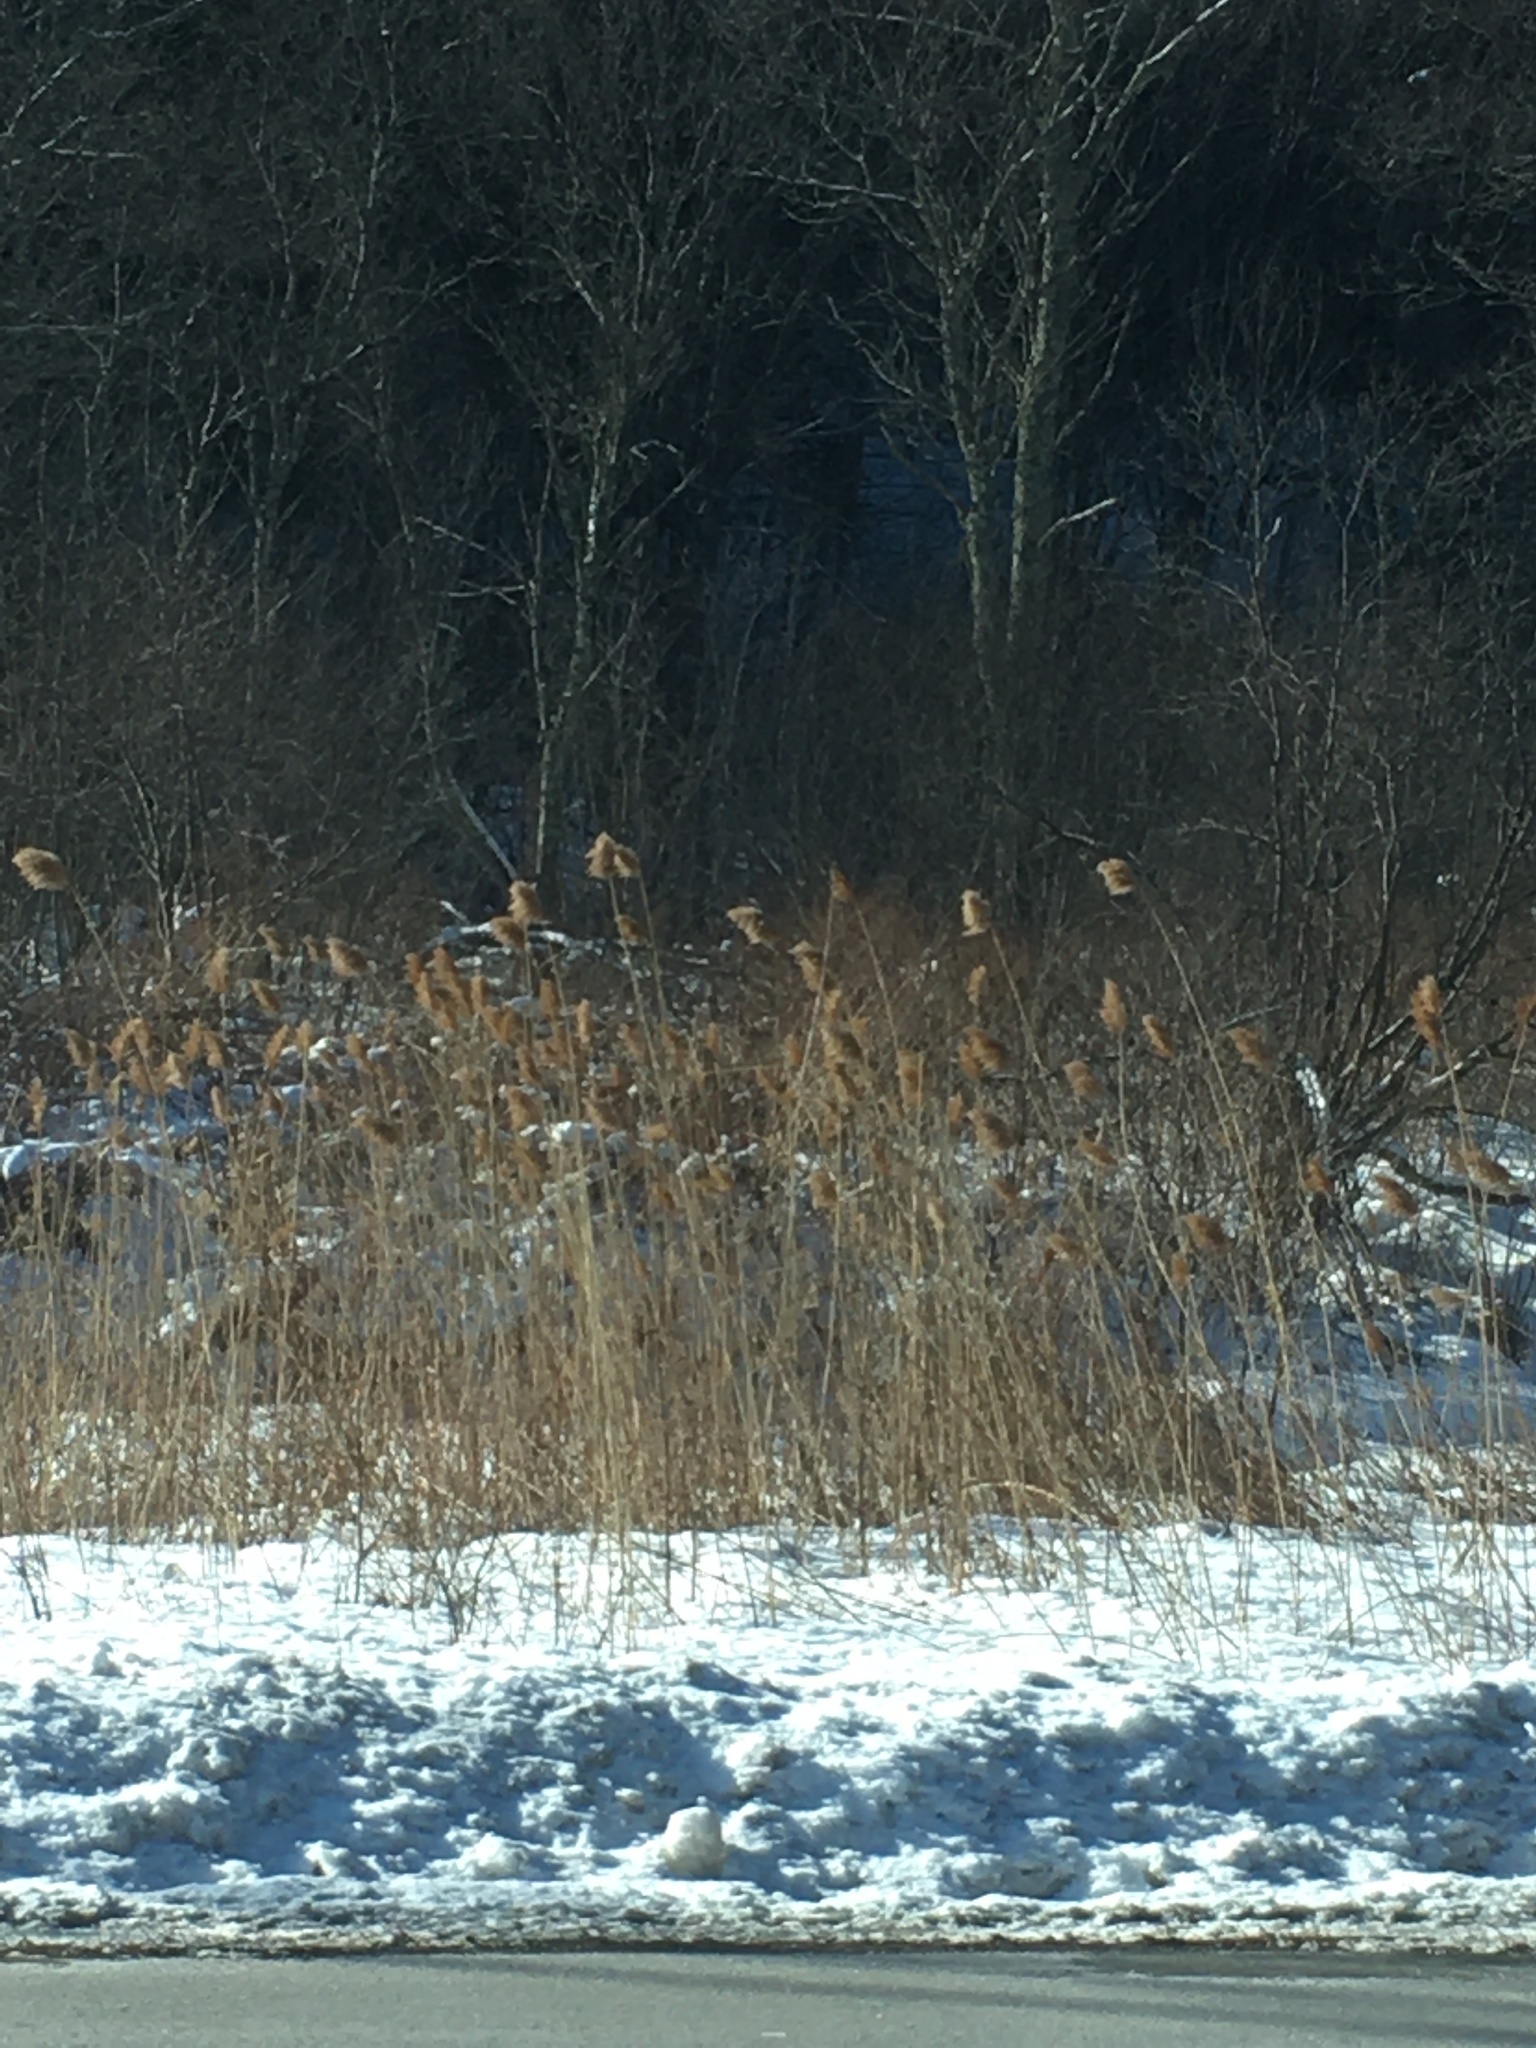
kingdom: Plantae
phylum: Tracheophyta
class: Liliopsida
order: Poales
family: Poaceae
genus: Phragmites
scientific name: Phragmites australis
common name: Common reed
